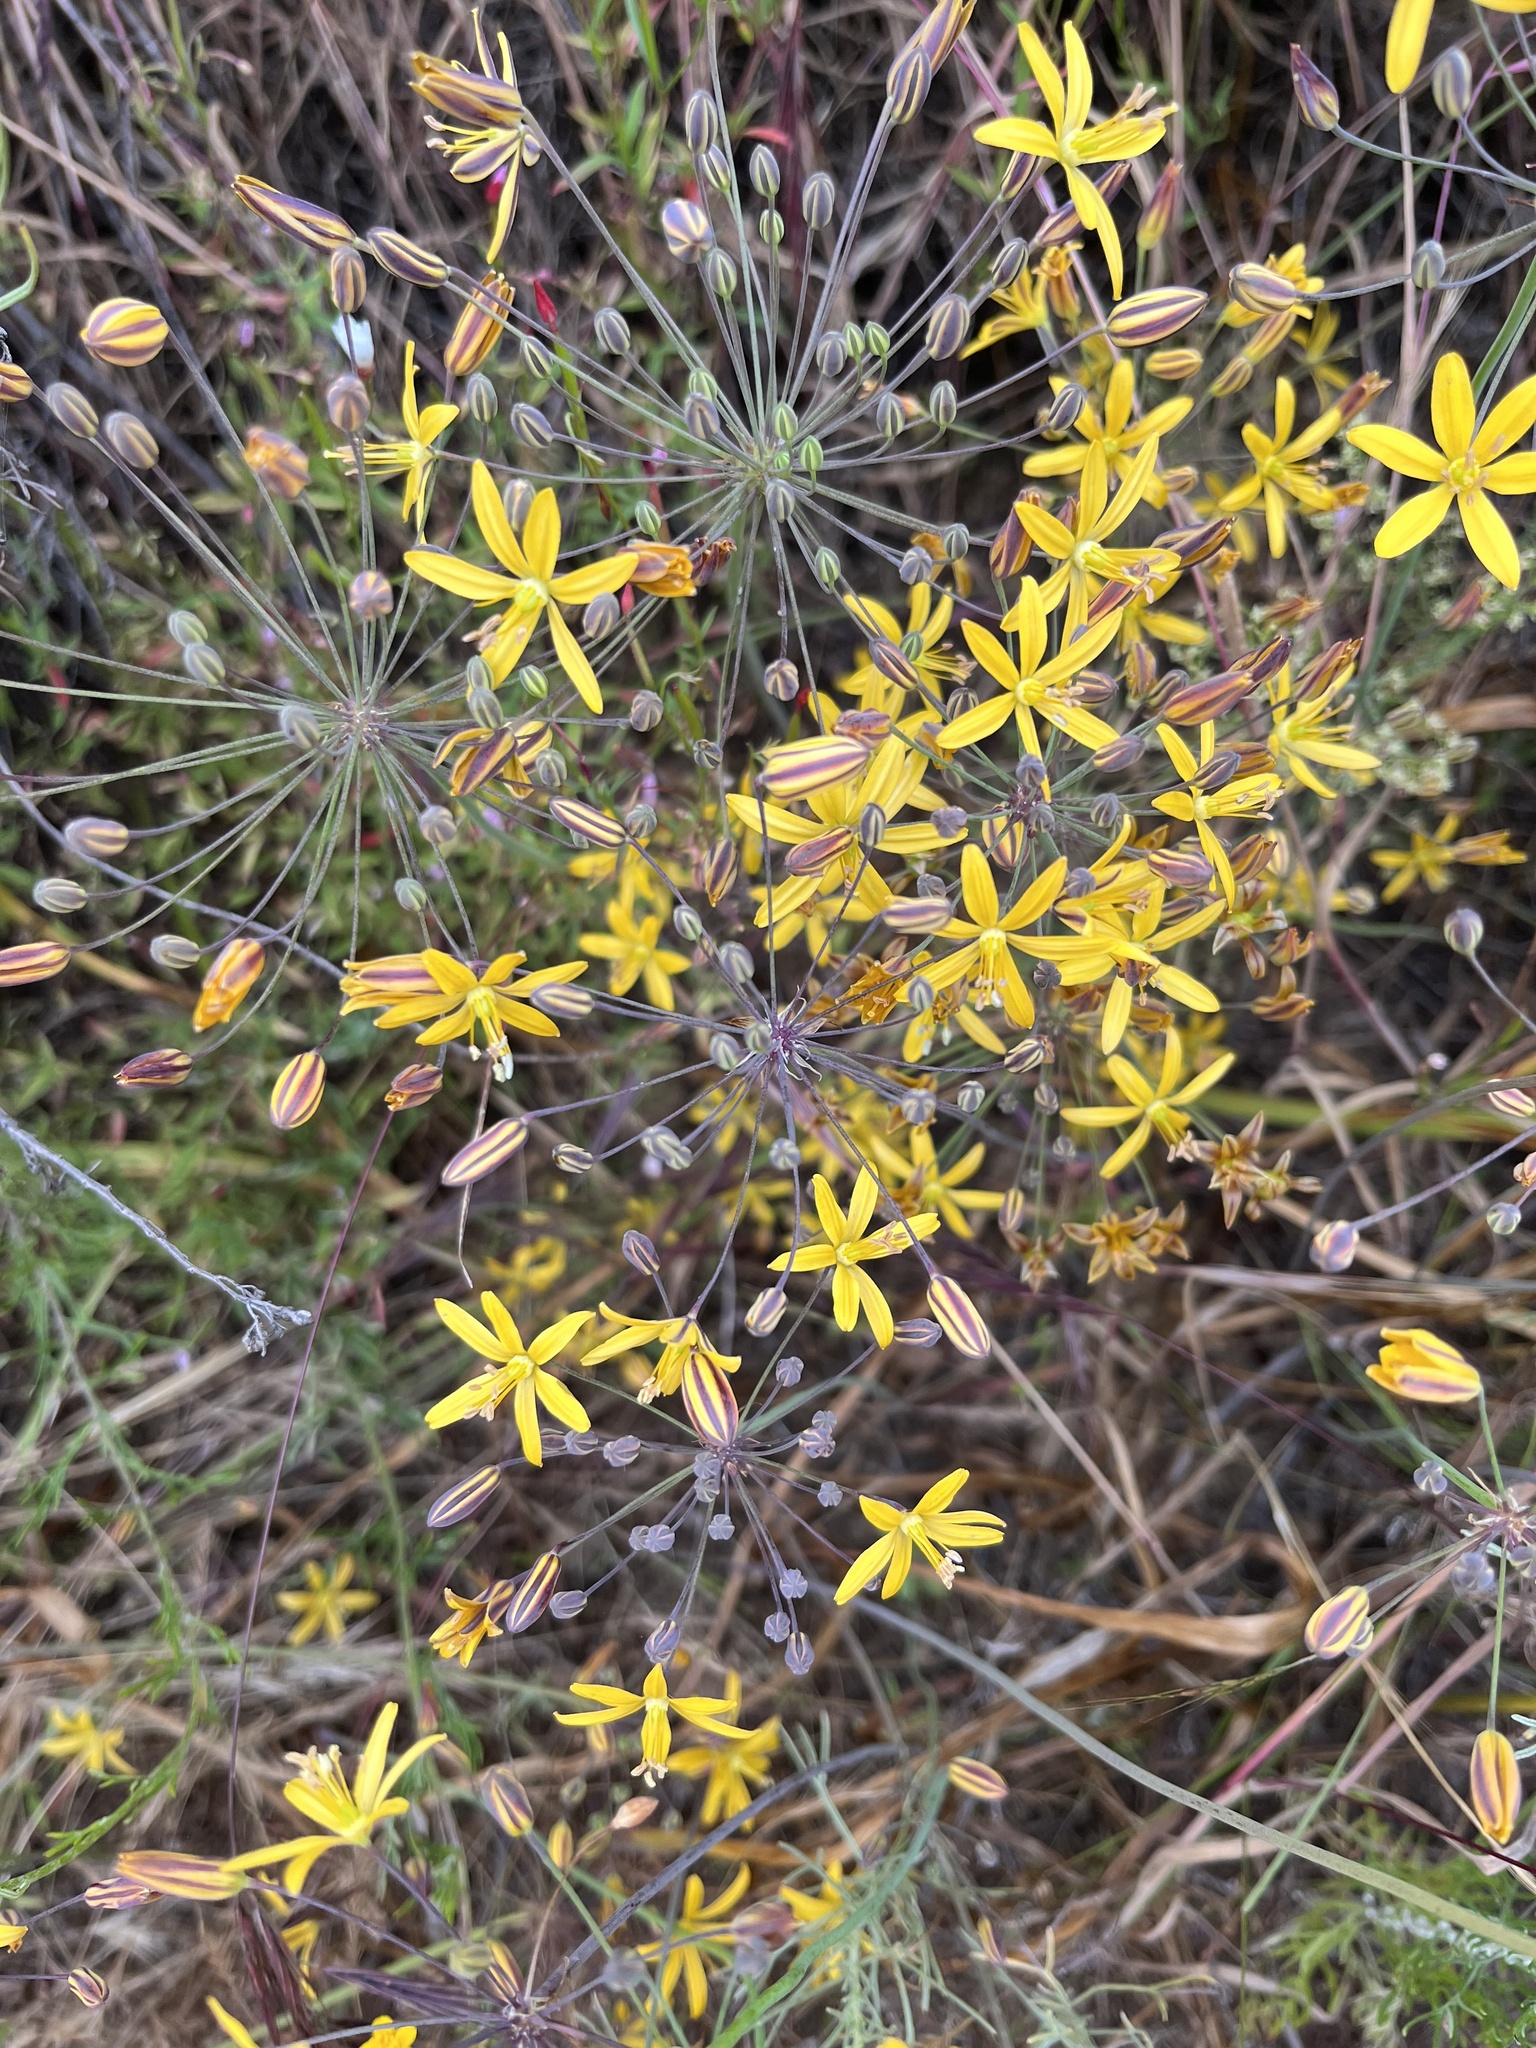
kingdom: Plantae
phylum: Tracheophyta
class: Liliopsida
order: Asparagales
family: Asparagaceae
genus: Bloomeria
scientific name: Bloomeria crocea
